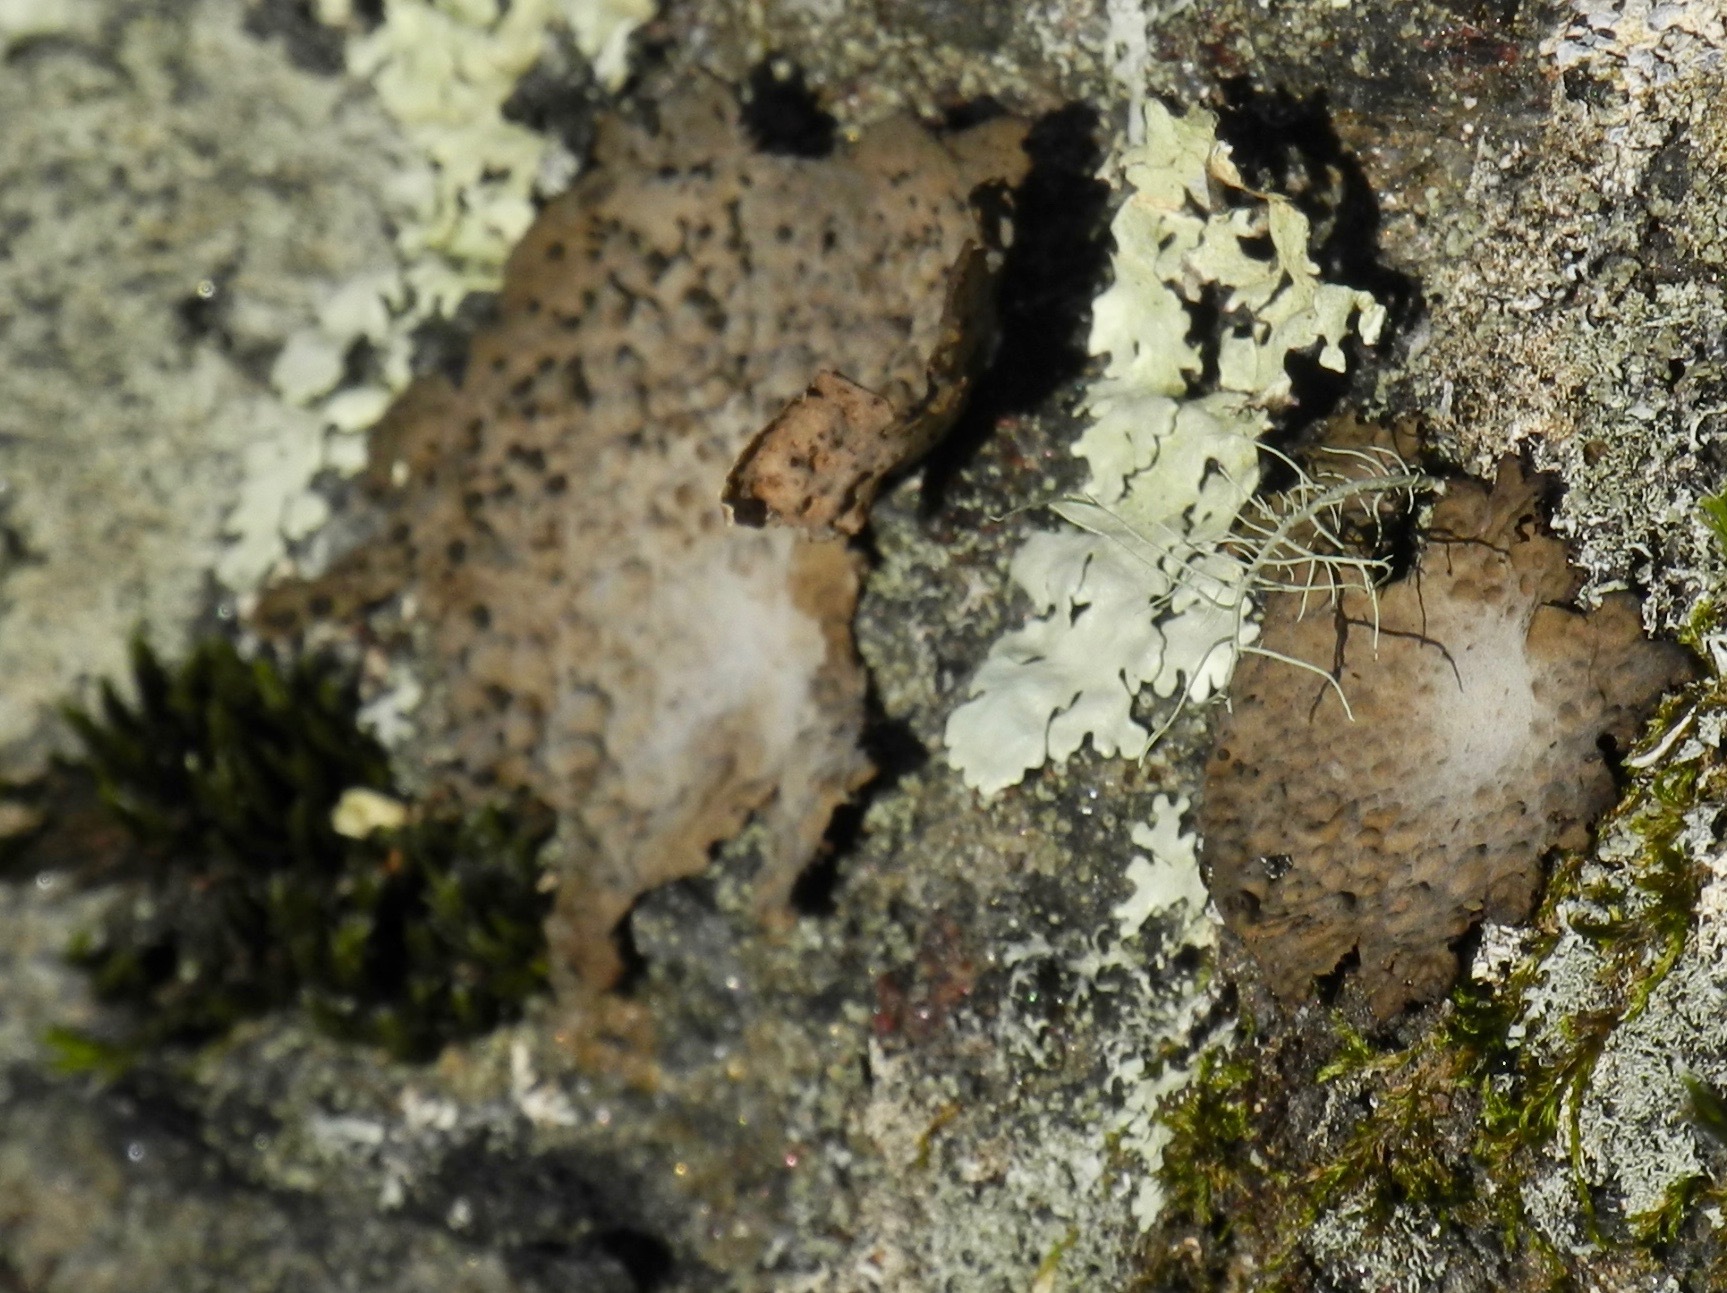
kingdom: Fungi
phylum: Ascomycota
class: Lecanoromycetes
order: Umbilicariales
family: Umbilicariaceae
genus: Lasallia
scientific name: Lasallia papulosa
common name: Common toadskin lichen
